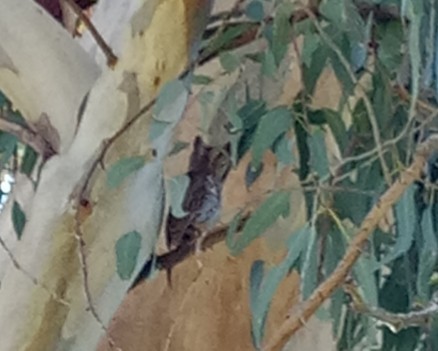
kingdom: Animalia
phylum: Chordata
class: Aves
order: Strigiformes
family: Strigidae
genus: Otus
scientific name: Otus scops
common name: Eurasian scops owl
